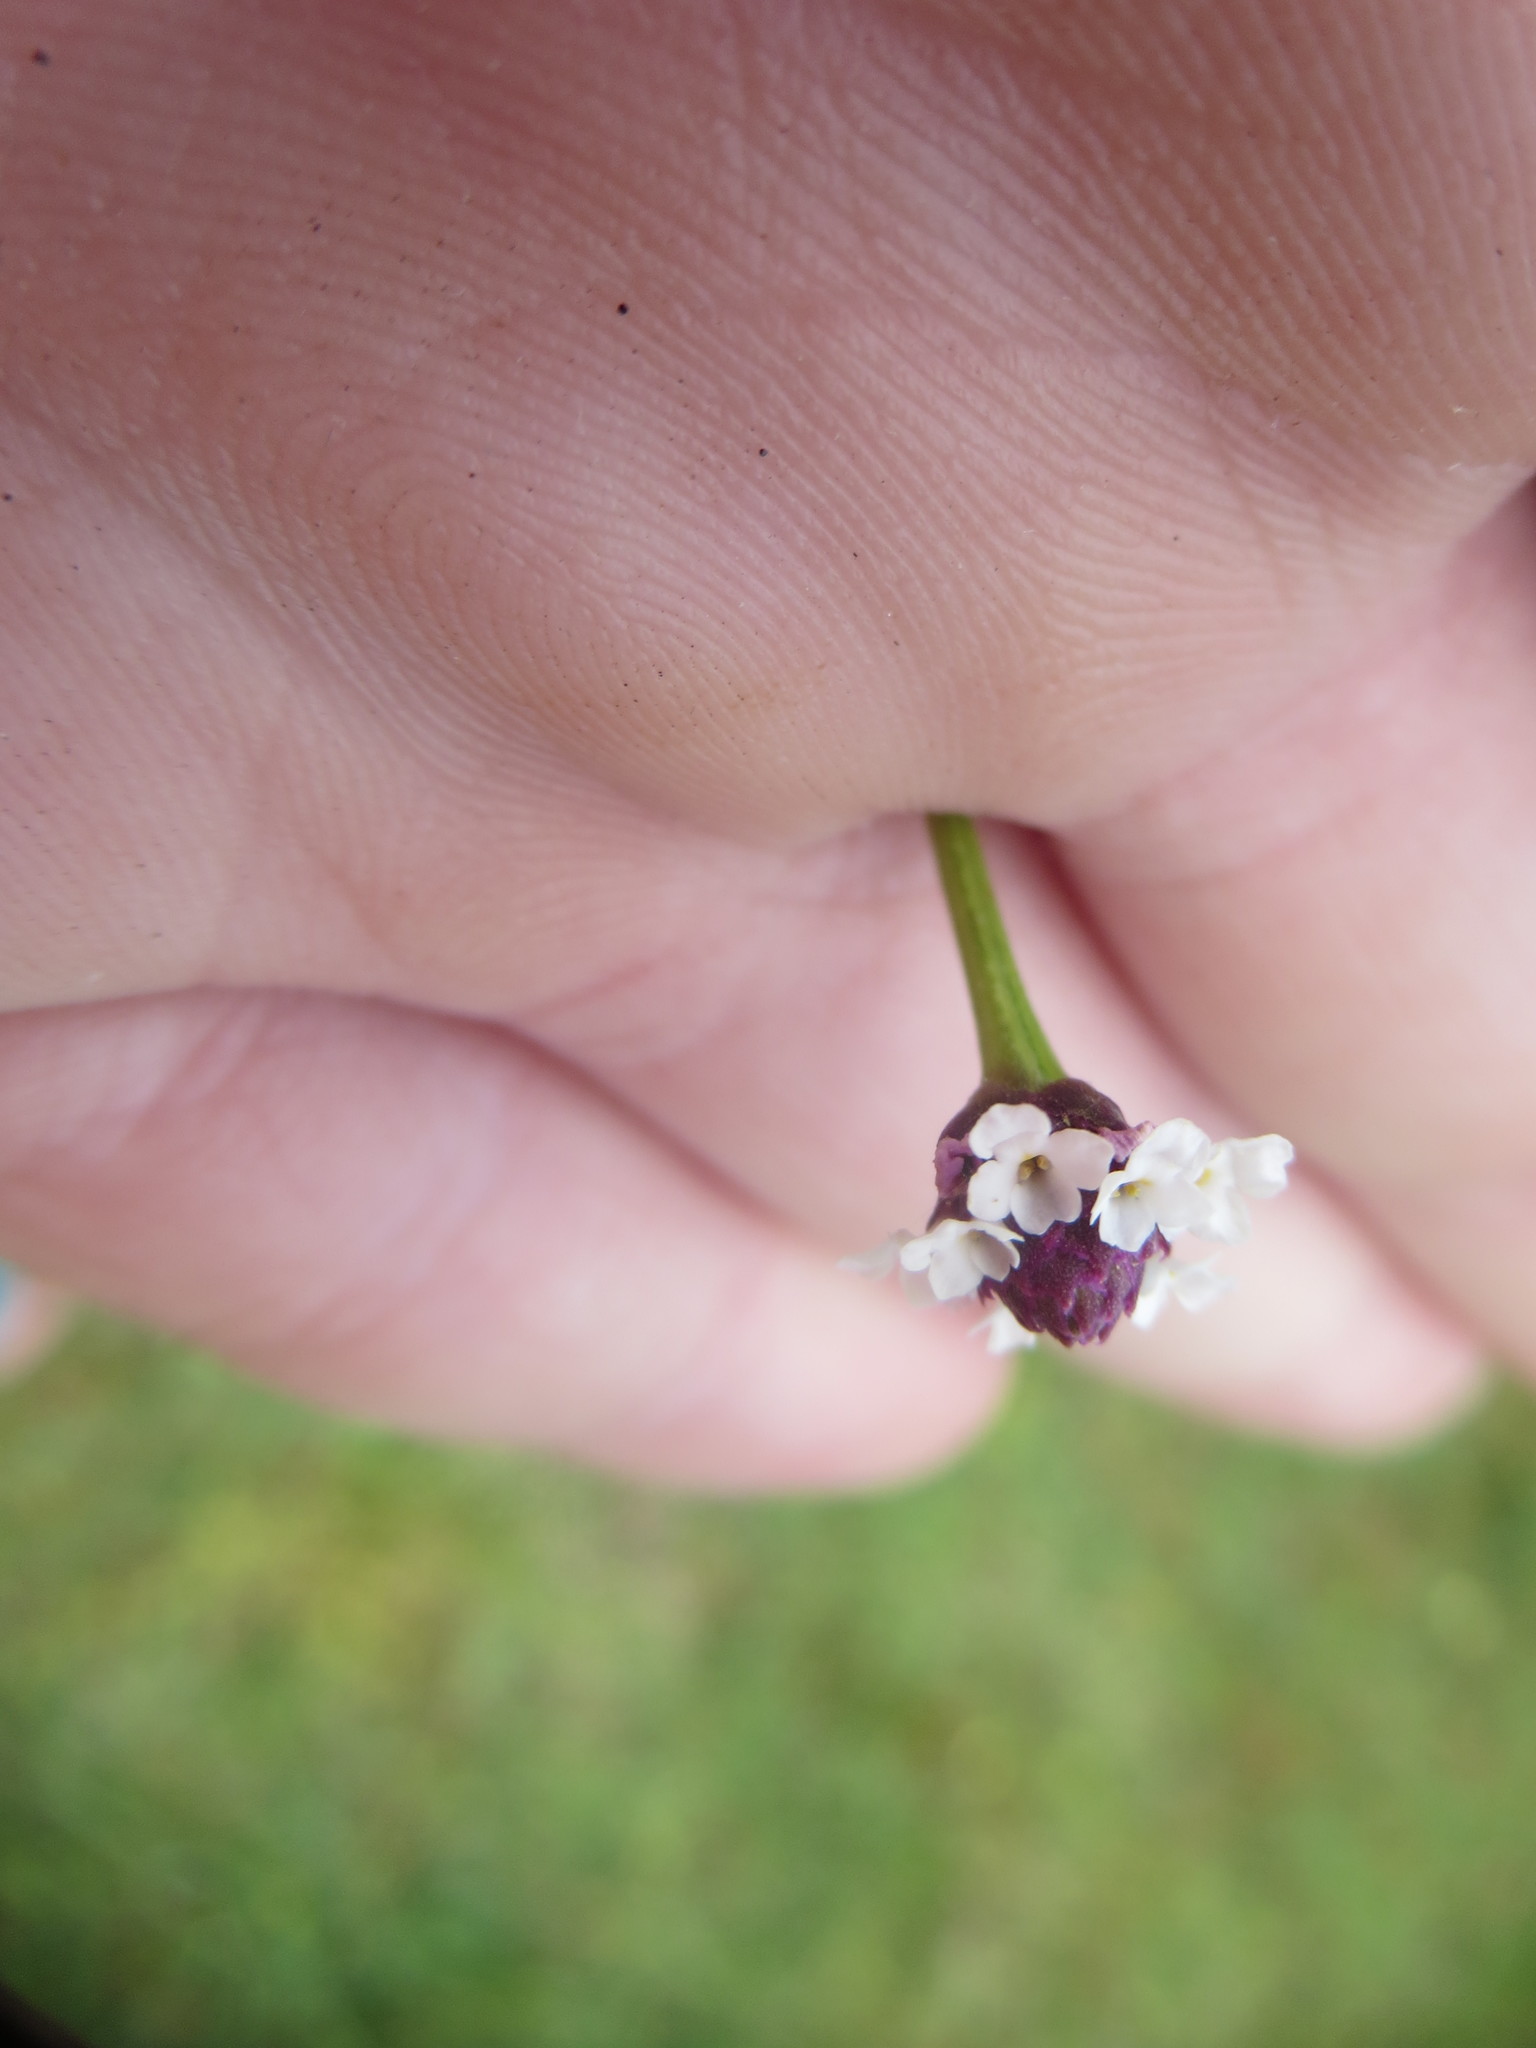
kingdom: Plantae
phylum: Tracheophyta
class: Magnoliopsida
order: Lamiales
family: Verbenaceae
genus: Phyla
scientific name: Phyla nodiflora
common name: Frogfruit
